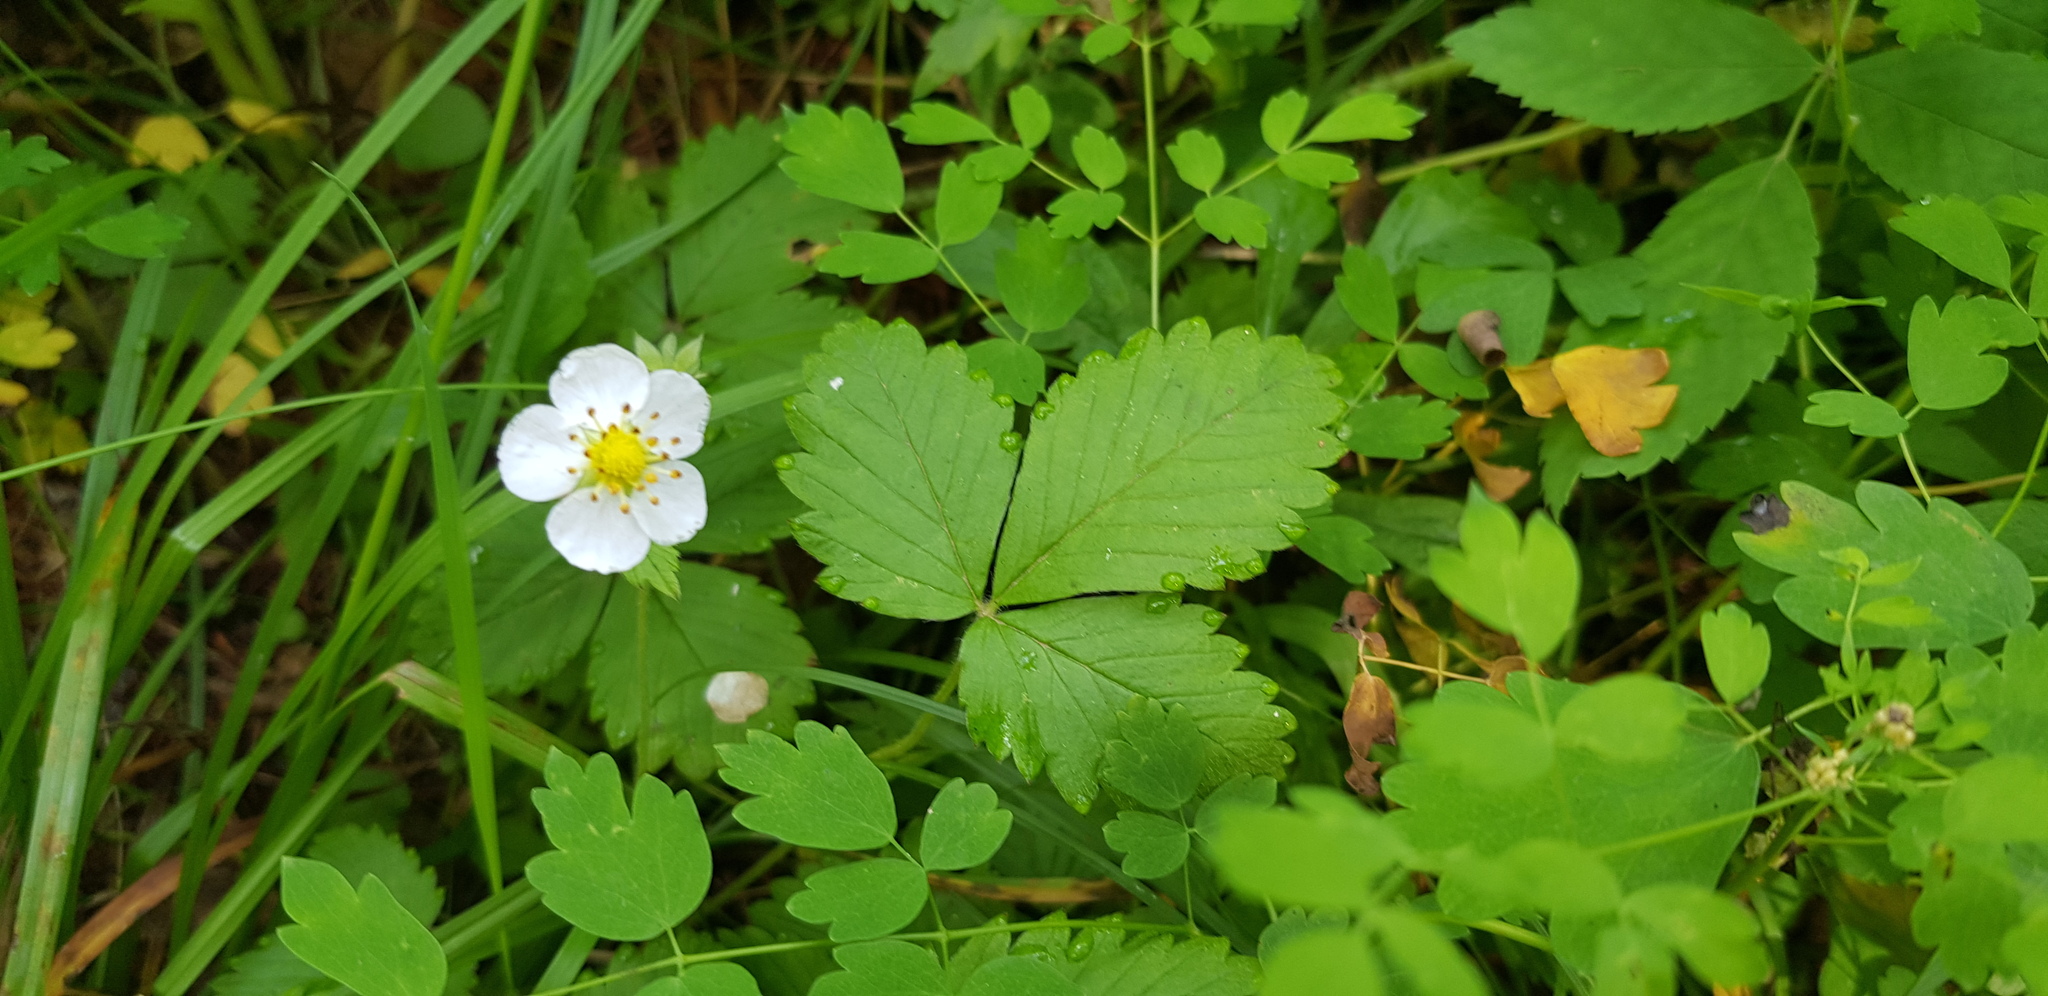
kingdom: Plantae
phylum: Tracheophyta
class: Magnoliopsida
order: Rosales
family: Rosaceae
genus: Fragaria
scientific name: Fragaria orientalis
